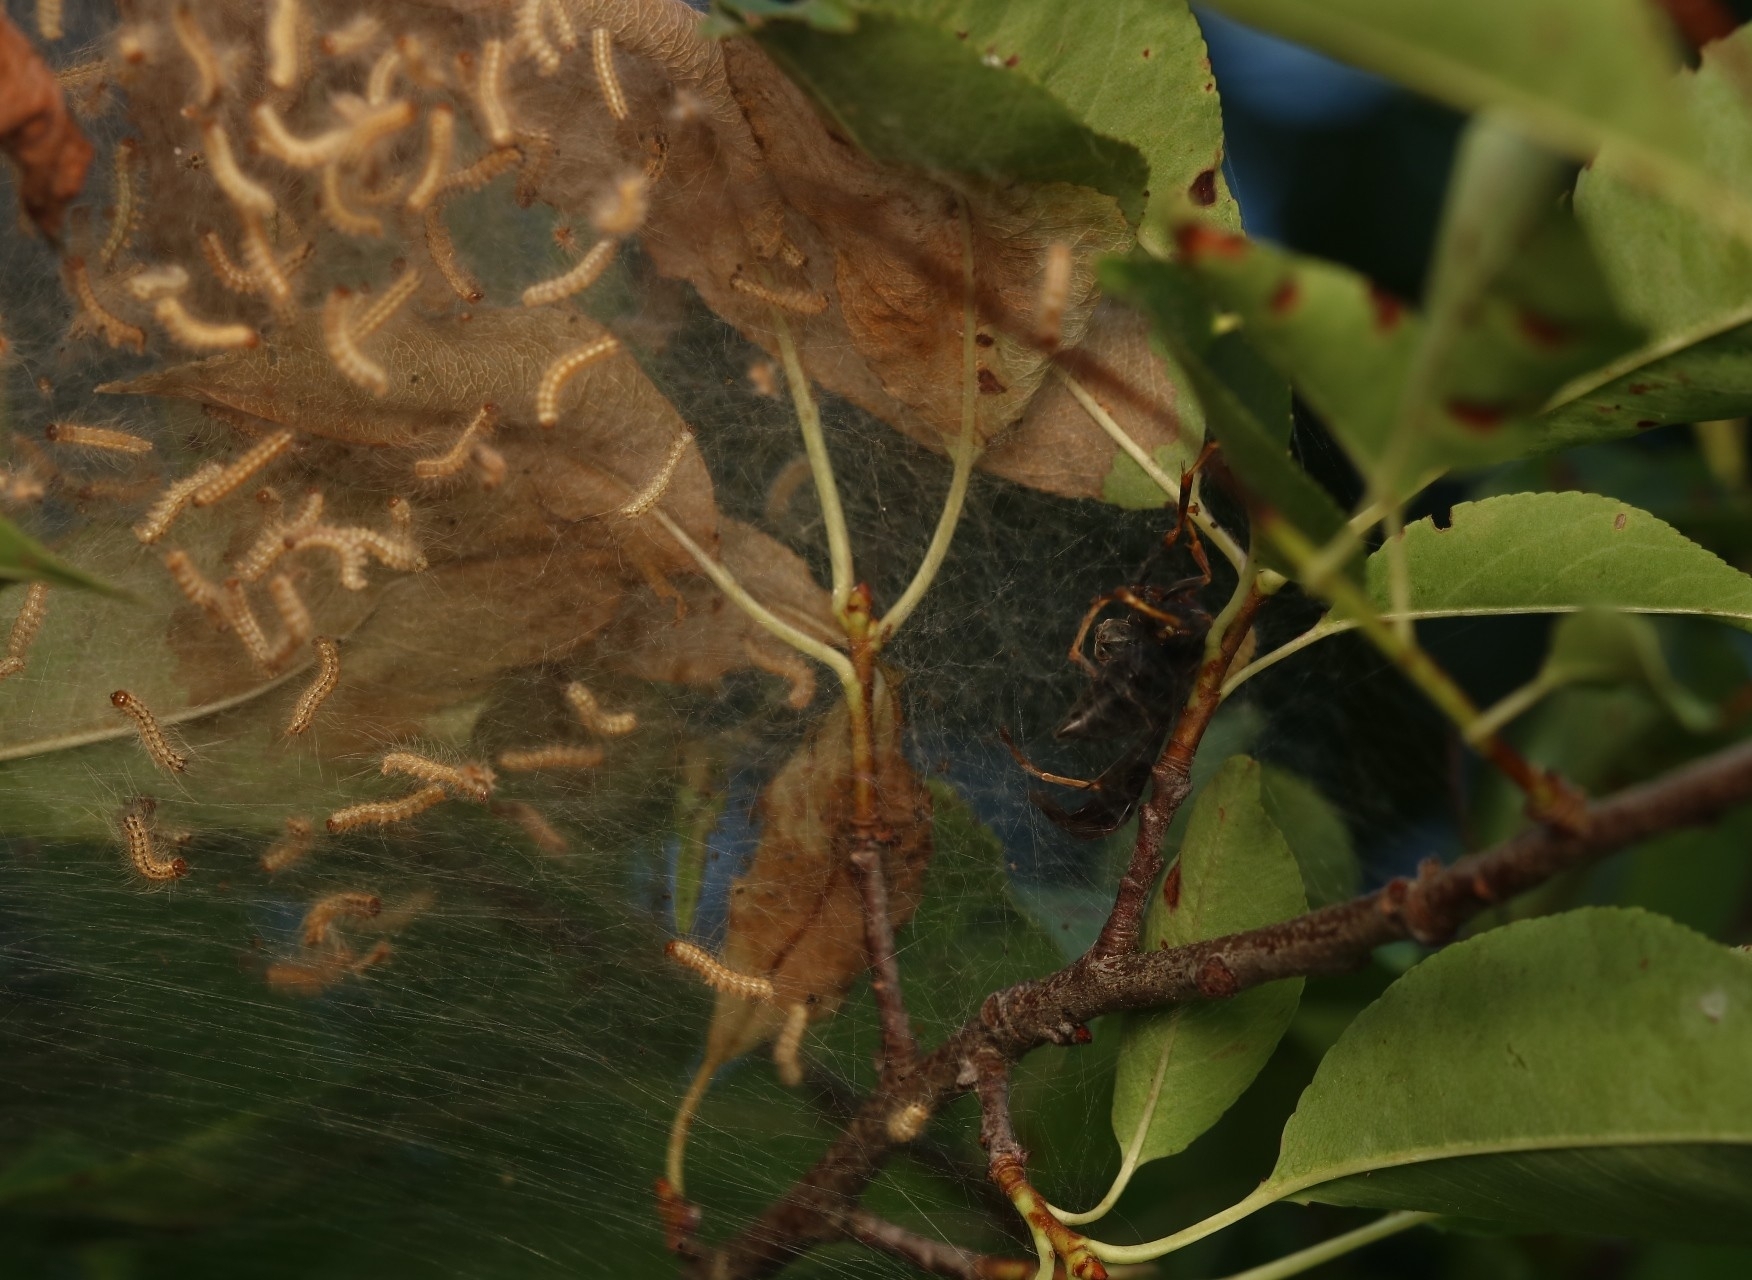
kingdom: Animalia
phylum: Arthropoda
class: Insecta
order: Lepidoptera
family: Erebidae
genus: Hyphantria
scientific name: Hyphantria cunea
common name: American white moth
